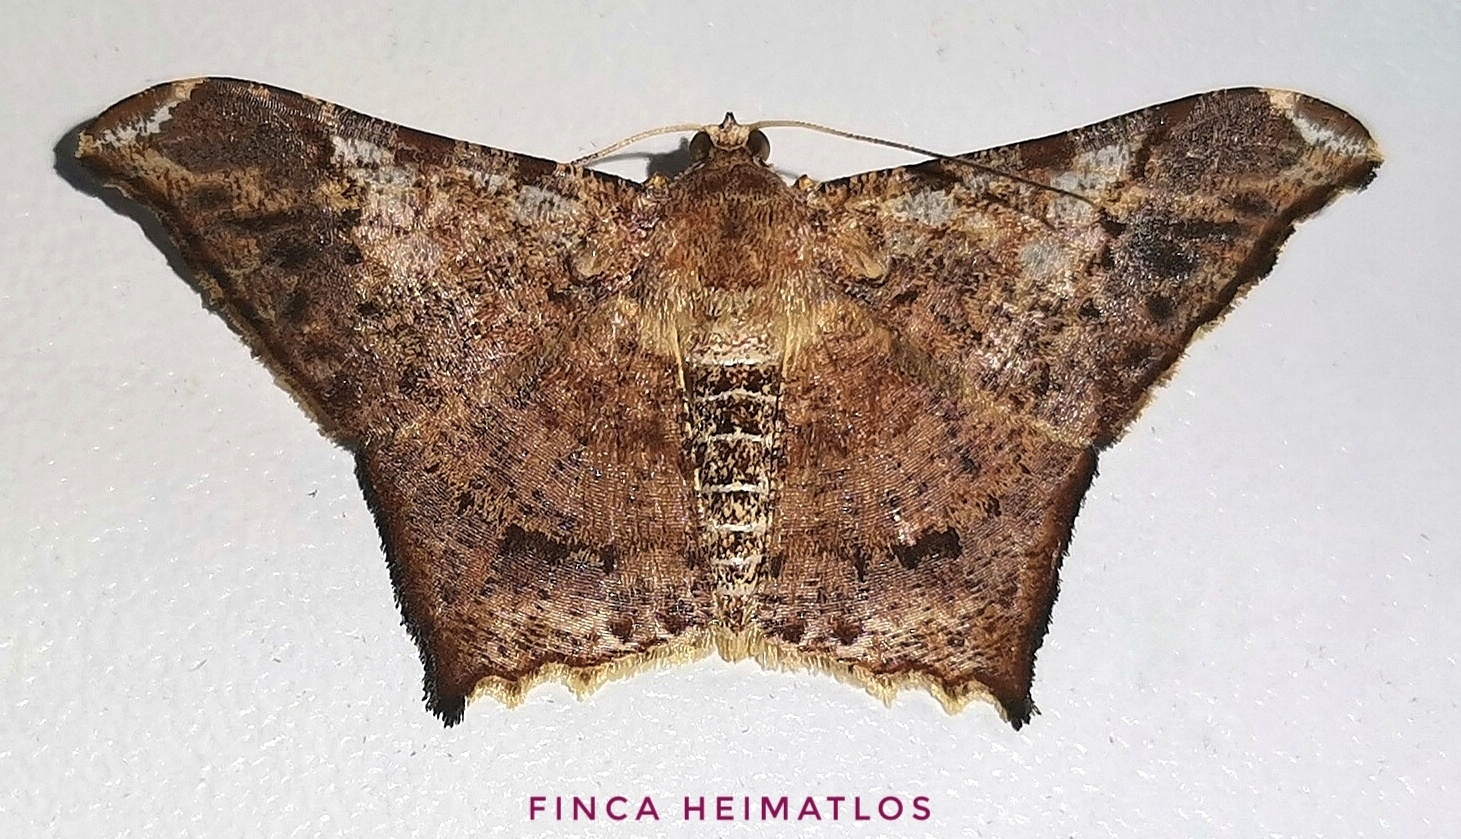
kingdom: Animalia
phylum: Arthropoda
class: Insecta
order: Lepidoptera
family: Geometridae
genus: Macaria
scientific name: Macaria acutaria
